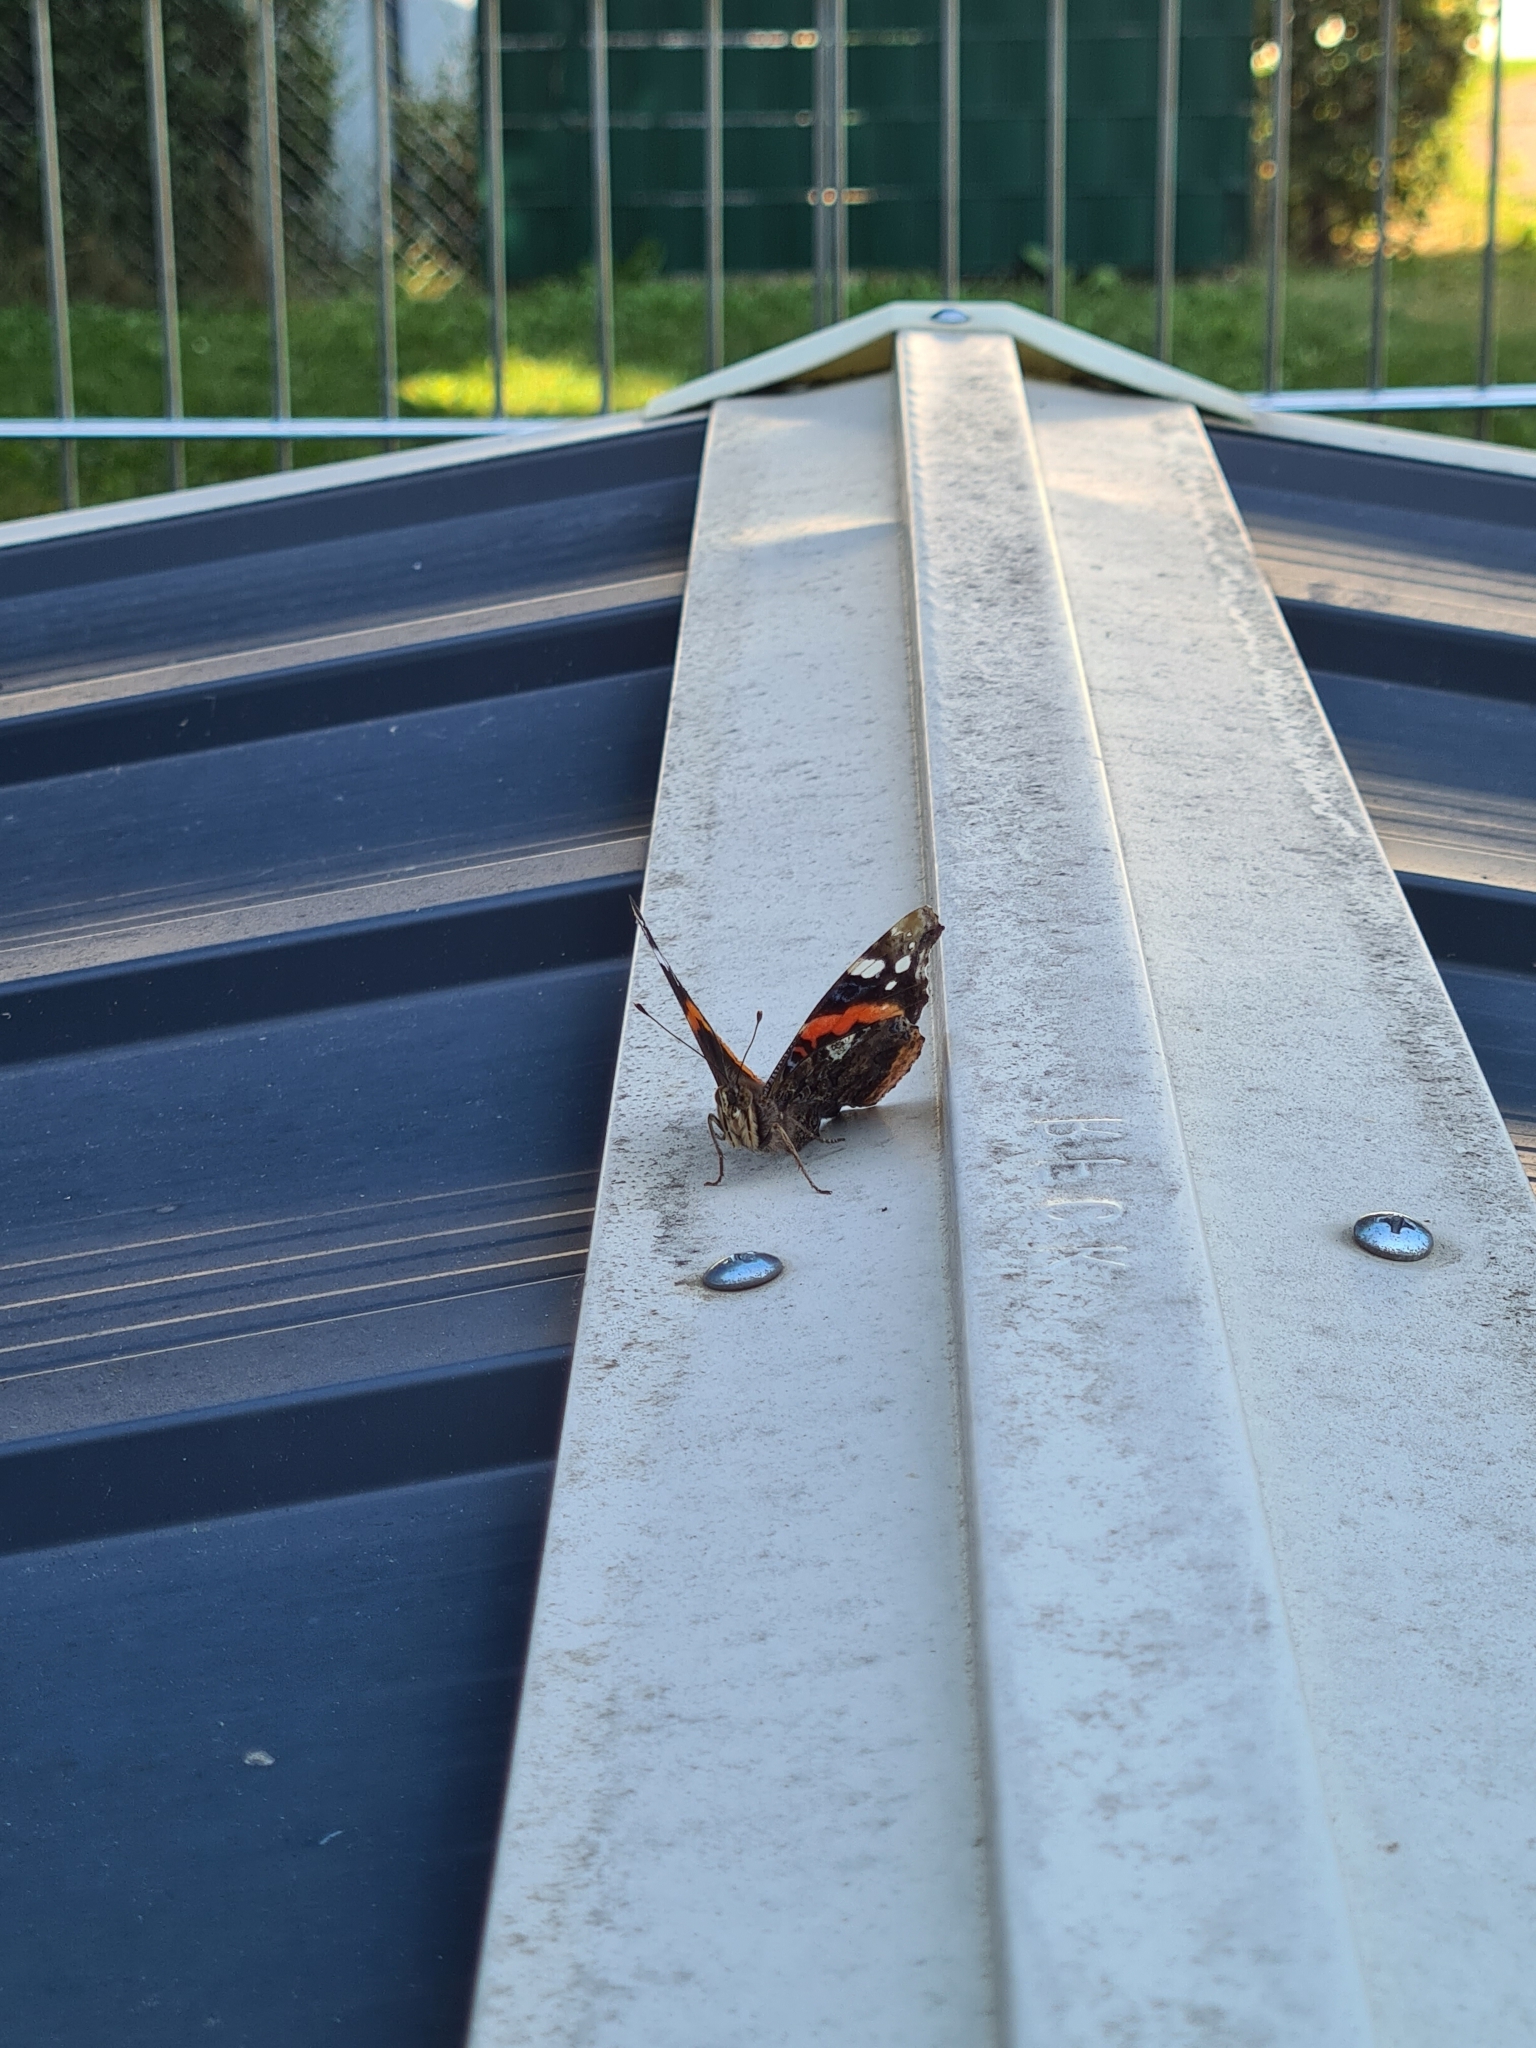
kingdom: Animalia
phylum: Arthropoda
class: Insecta
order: Lepidoptera
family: Nymphalidae
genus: Vanessa
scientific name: Vanessa atalanta
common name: Red admiral
